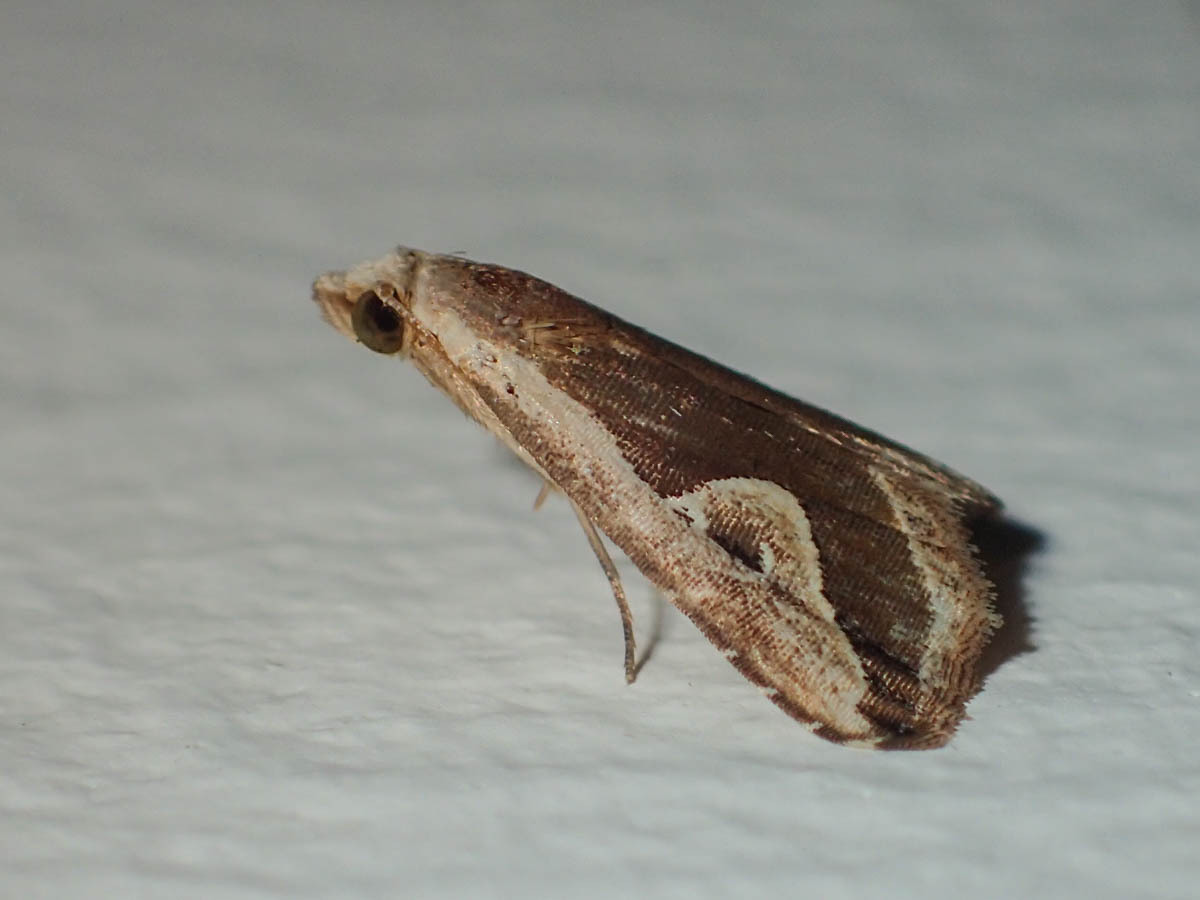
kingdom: Animalia
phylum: Arthropoda
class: Insecta
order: Lepidoptera
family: Erebidae
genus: Rivula
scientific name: Rivula curvifera
